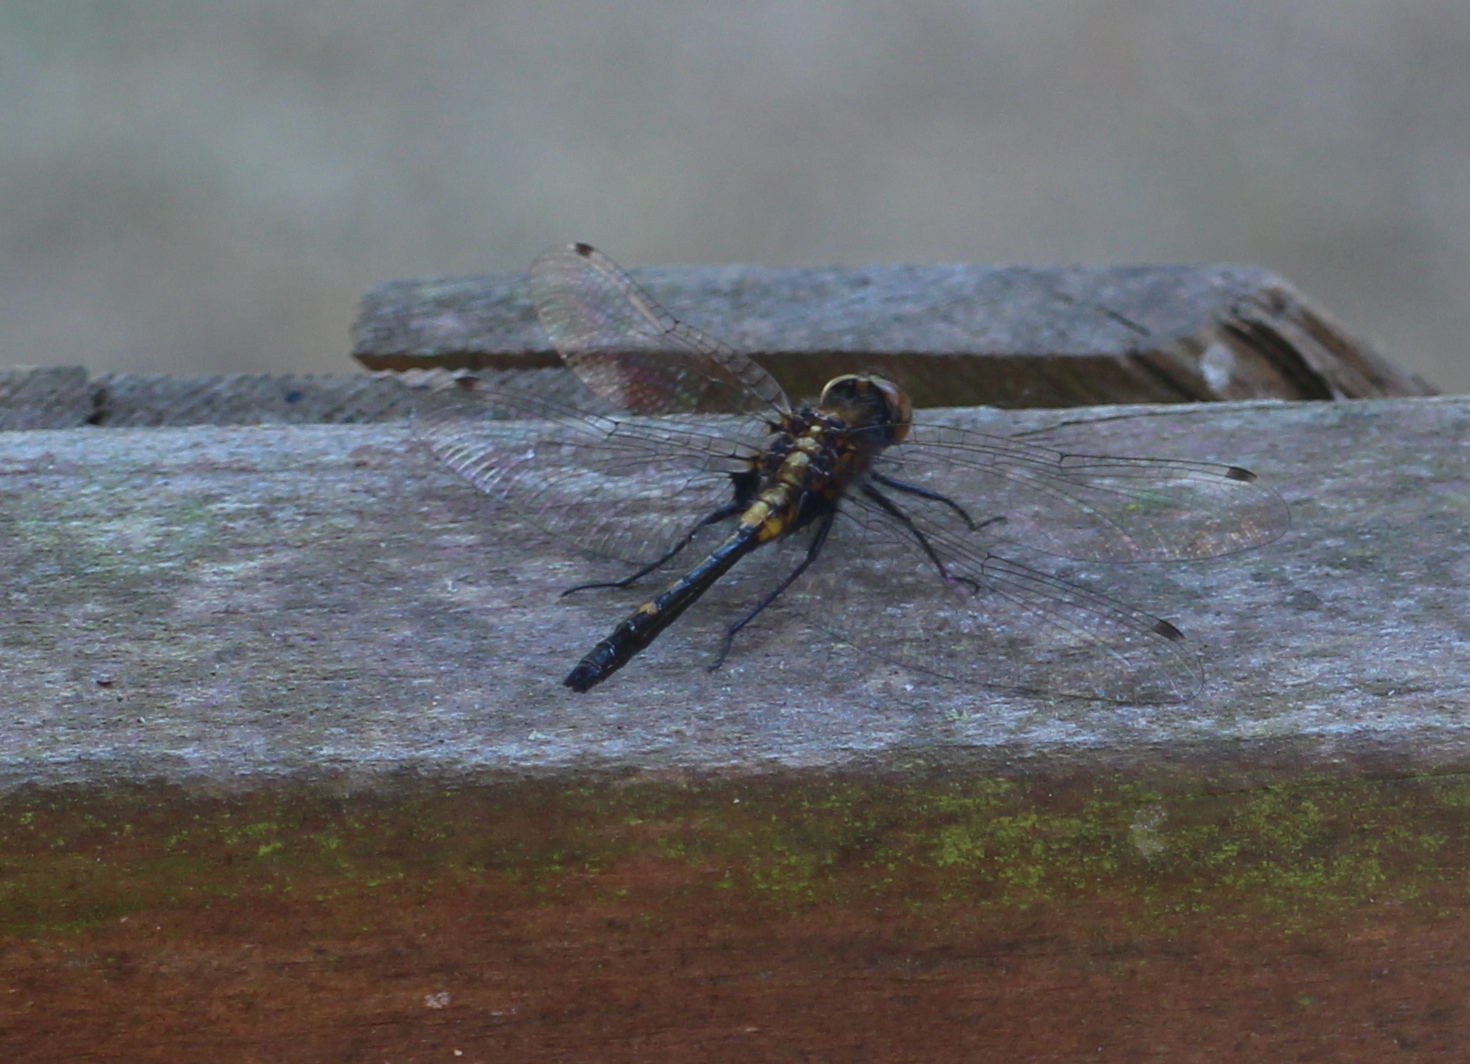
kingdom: Animalia
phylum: Arthropoda
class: Insecta
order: Odonata
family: Libellulidae
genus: Leucorrhinia
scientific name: Leucorrhinia intacta
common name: Dot-tailed whiteface
